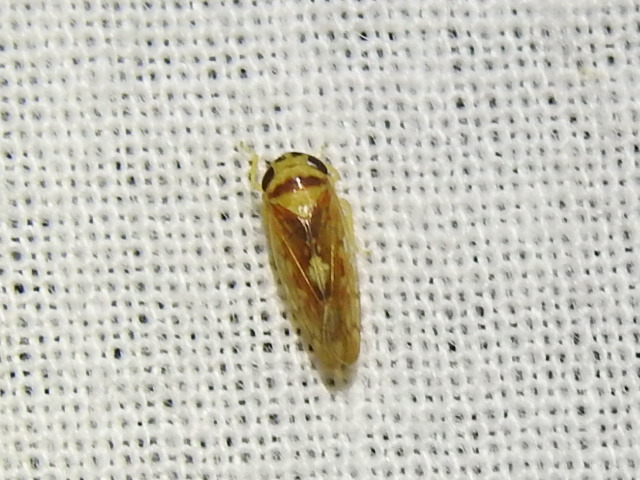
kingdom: Animalia
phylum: Arthropoda
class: Insecta
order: Hemiptera
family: Cicadellidae
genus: Eutettix
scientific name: Eutettix prinoides
